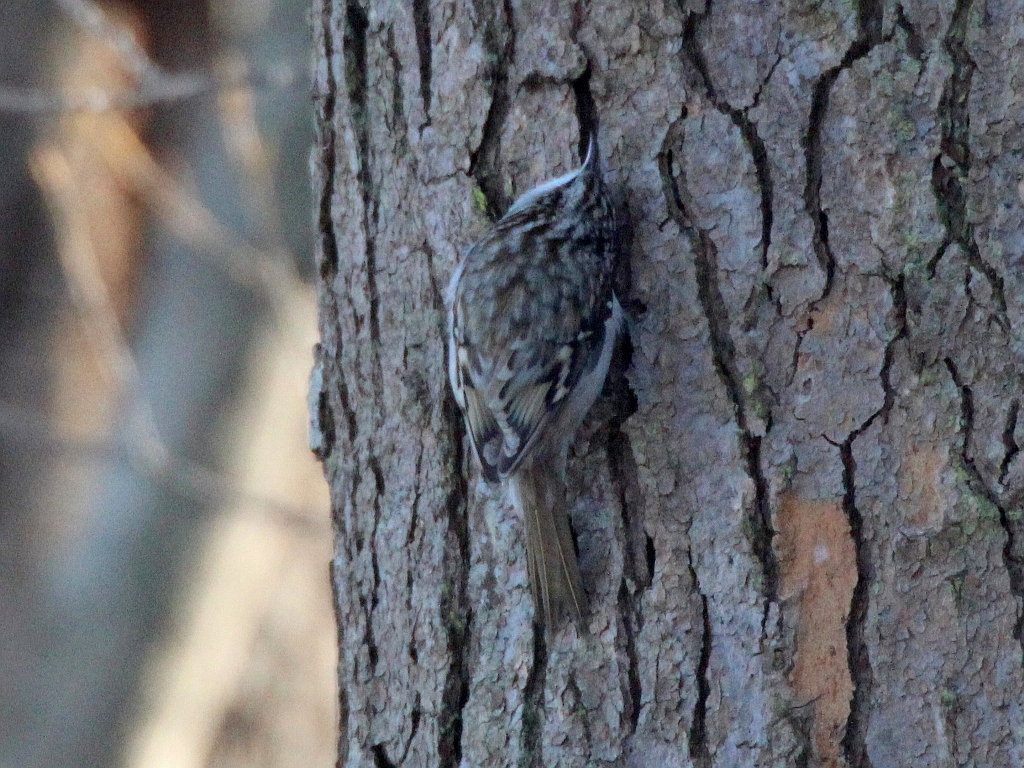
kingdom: Animalia
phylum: Chordata
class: Aves
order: Passeriformes
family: Certhiidae
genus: Certhia
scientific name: Certhia familiaris
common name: Eurasian treecreeper
